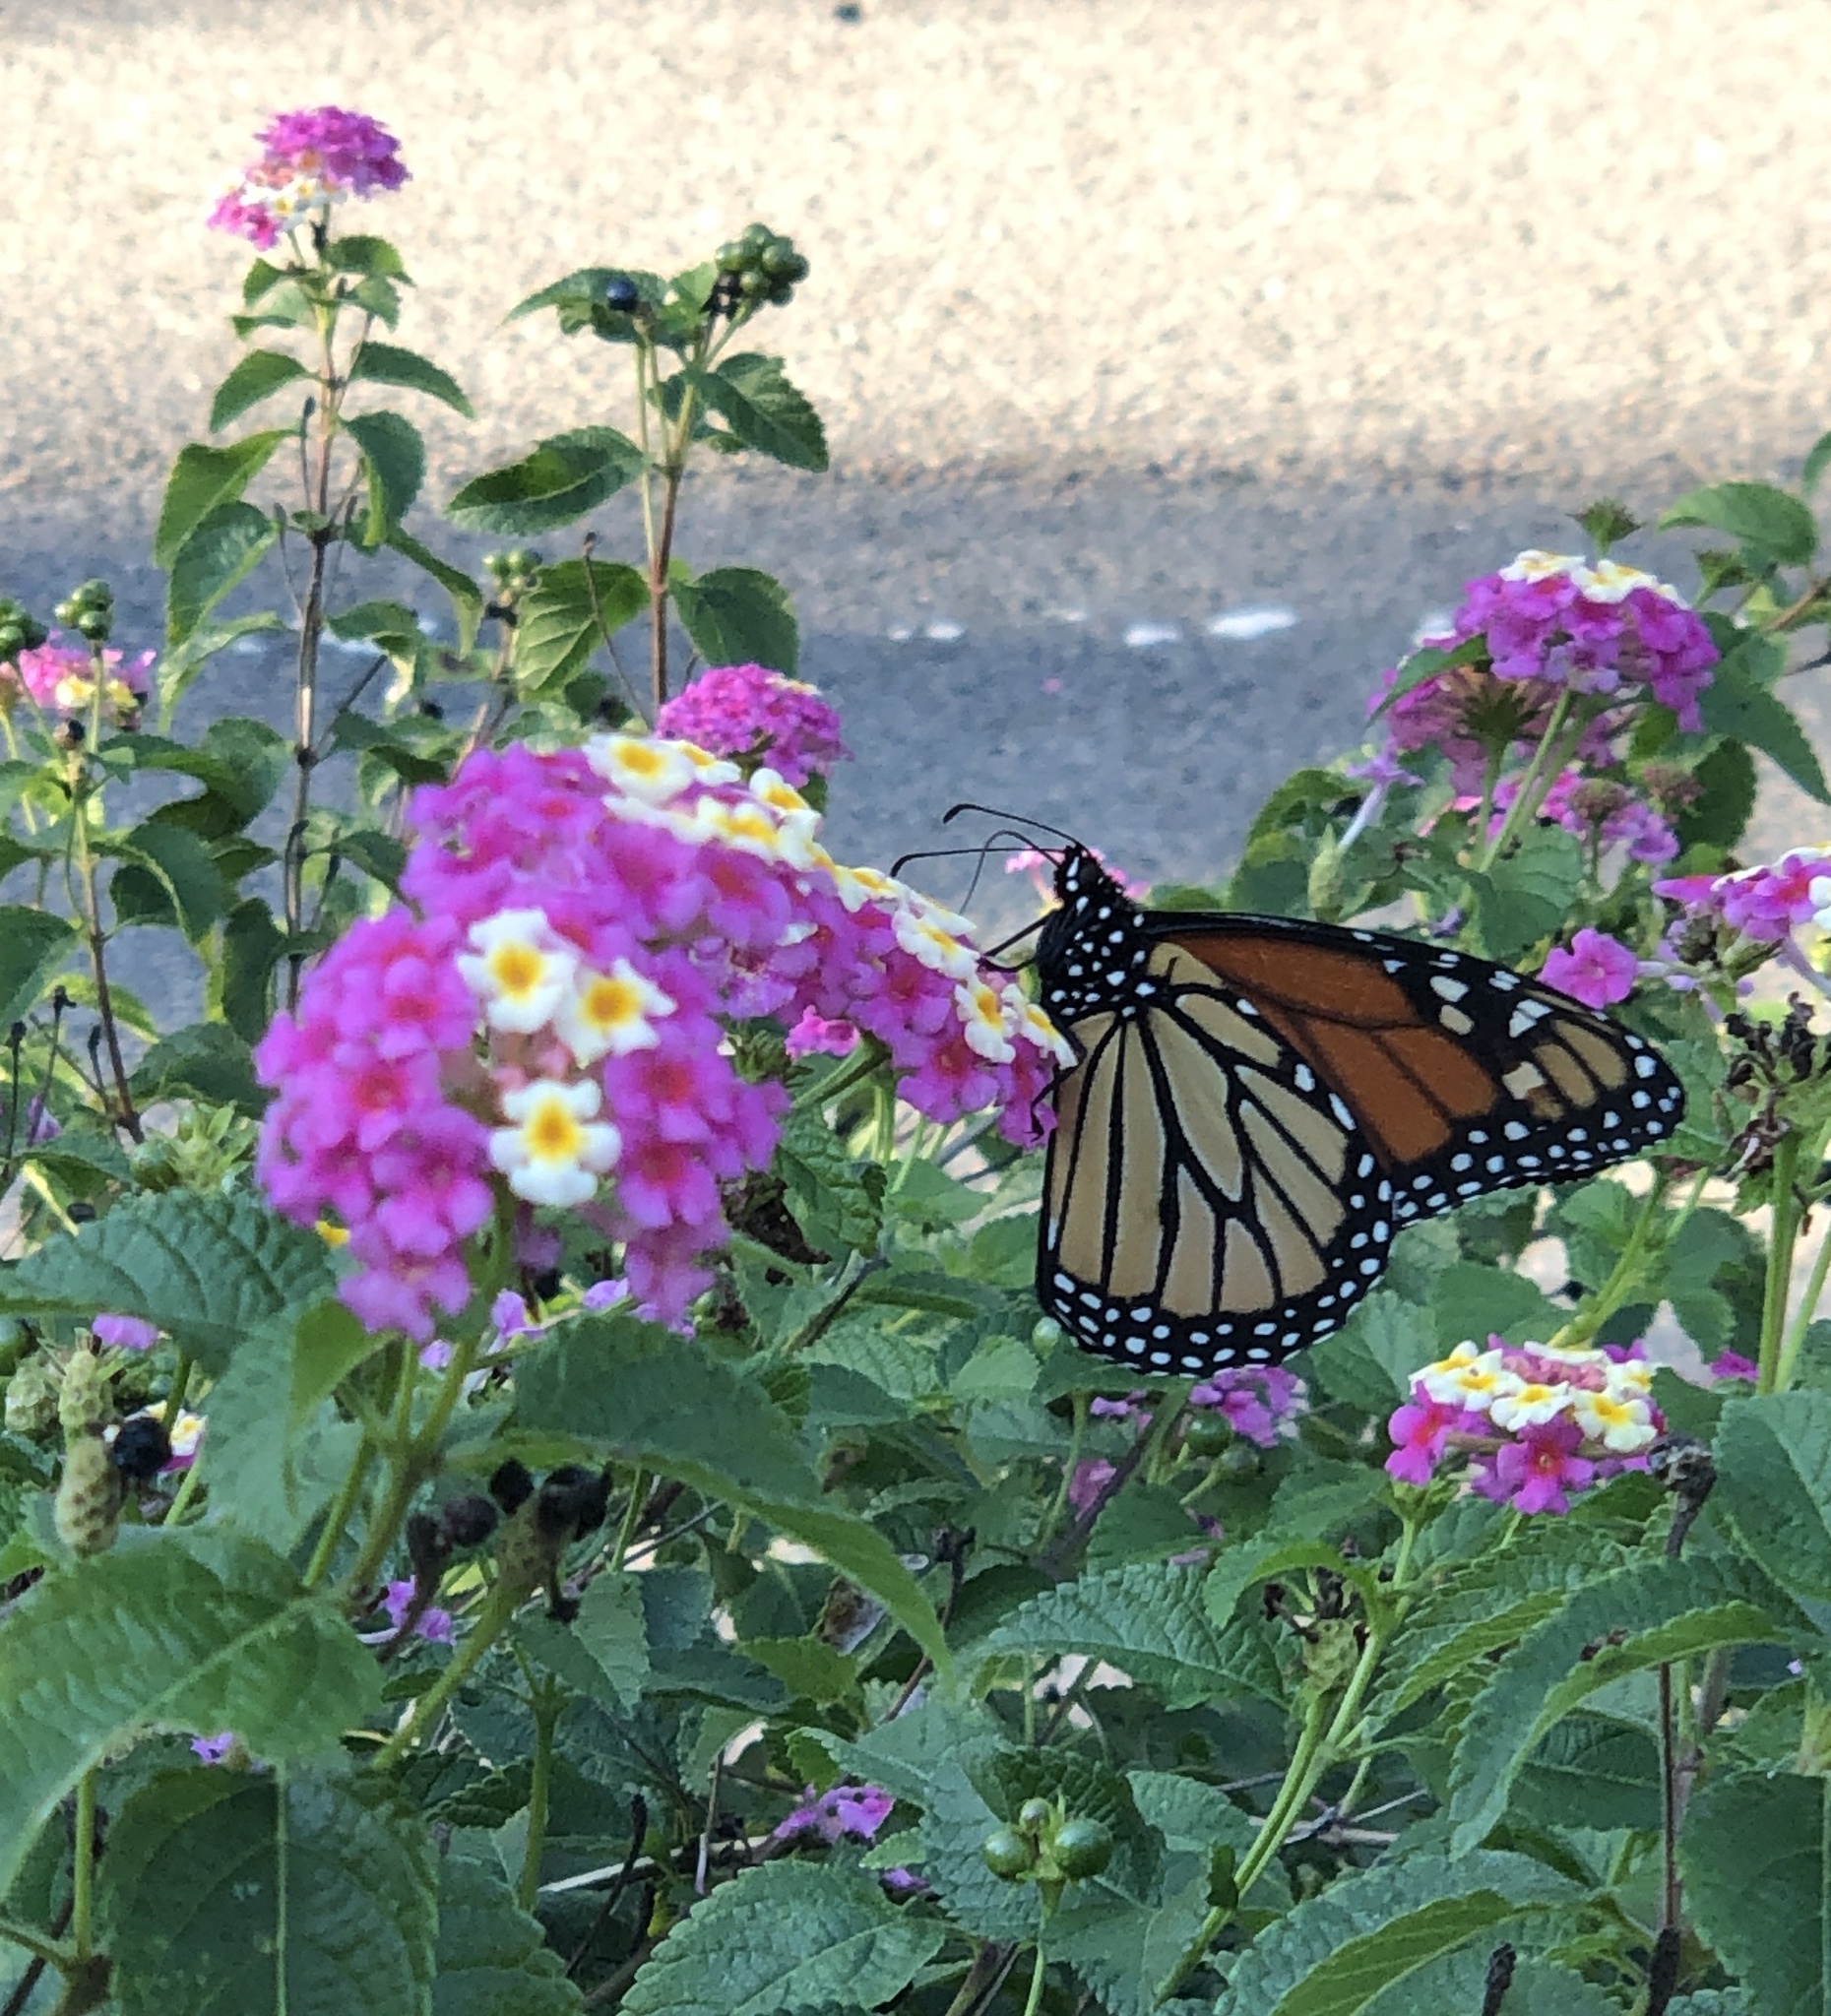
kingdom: Animalia
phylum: Arthropoda
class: Insecta
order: Lepidoptera
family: Nymphalidae
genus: Danaus
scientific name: Danaus plexippus
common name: Monarch
